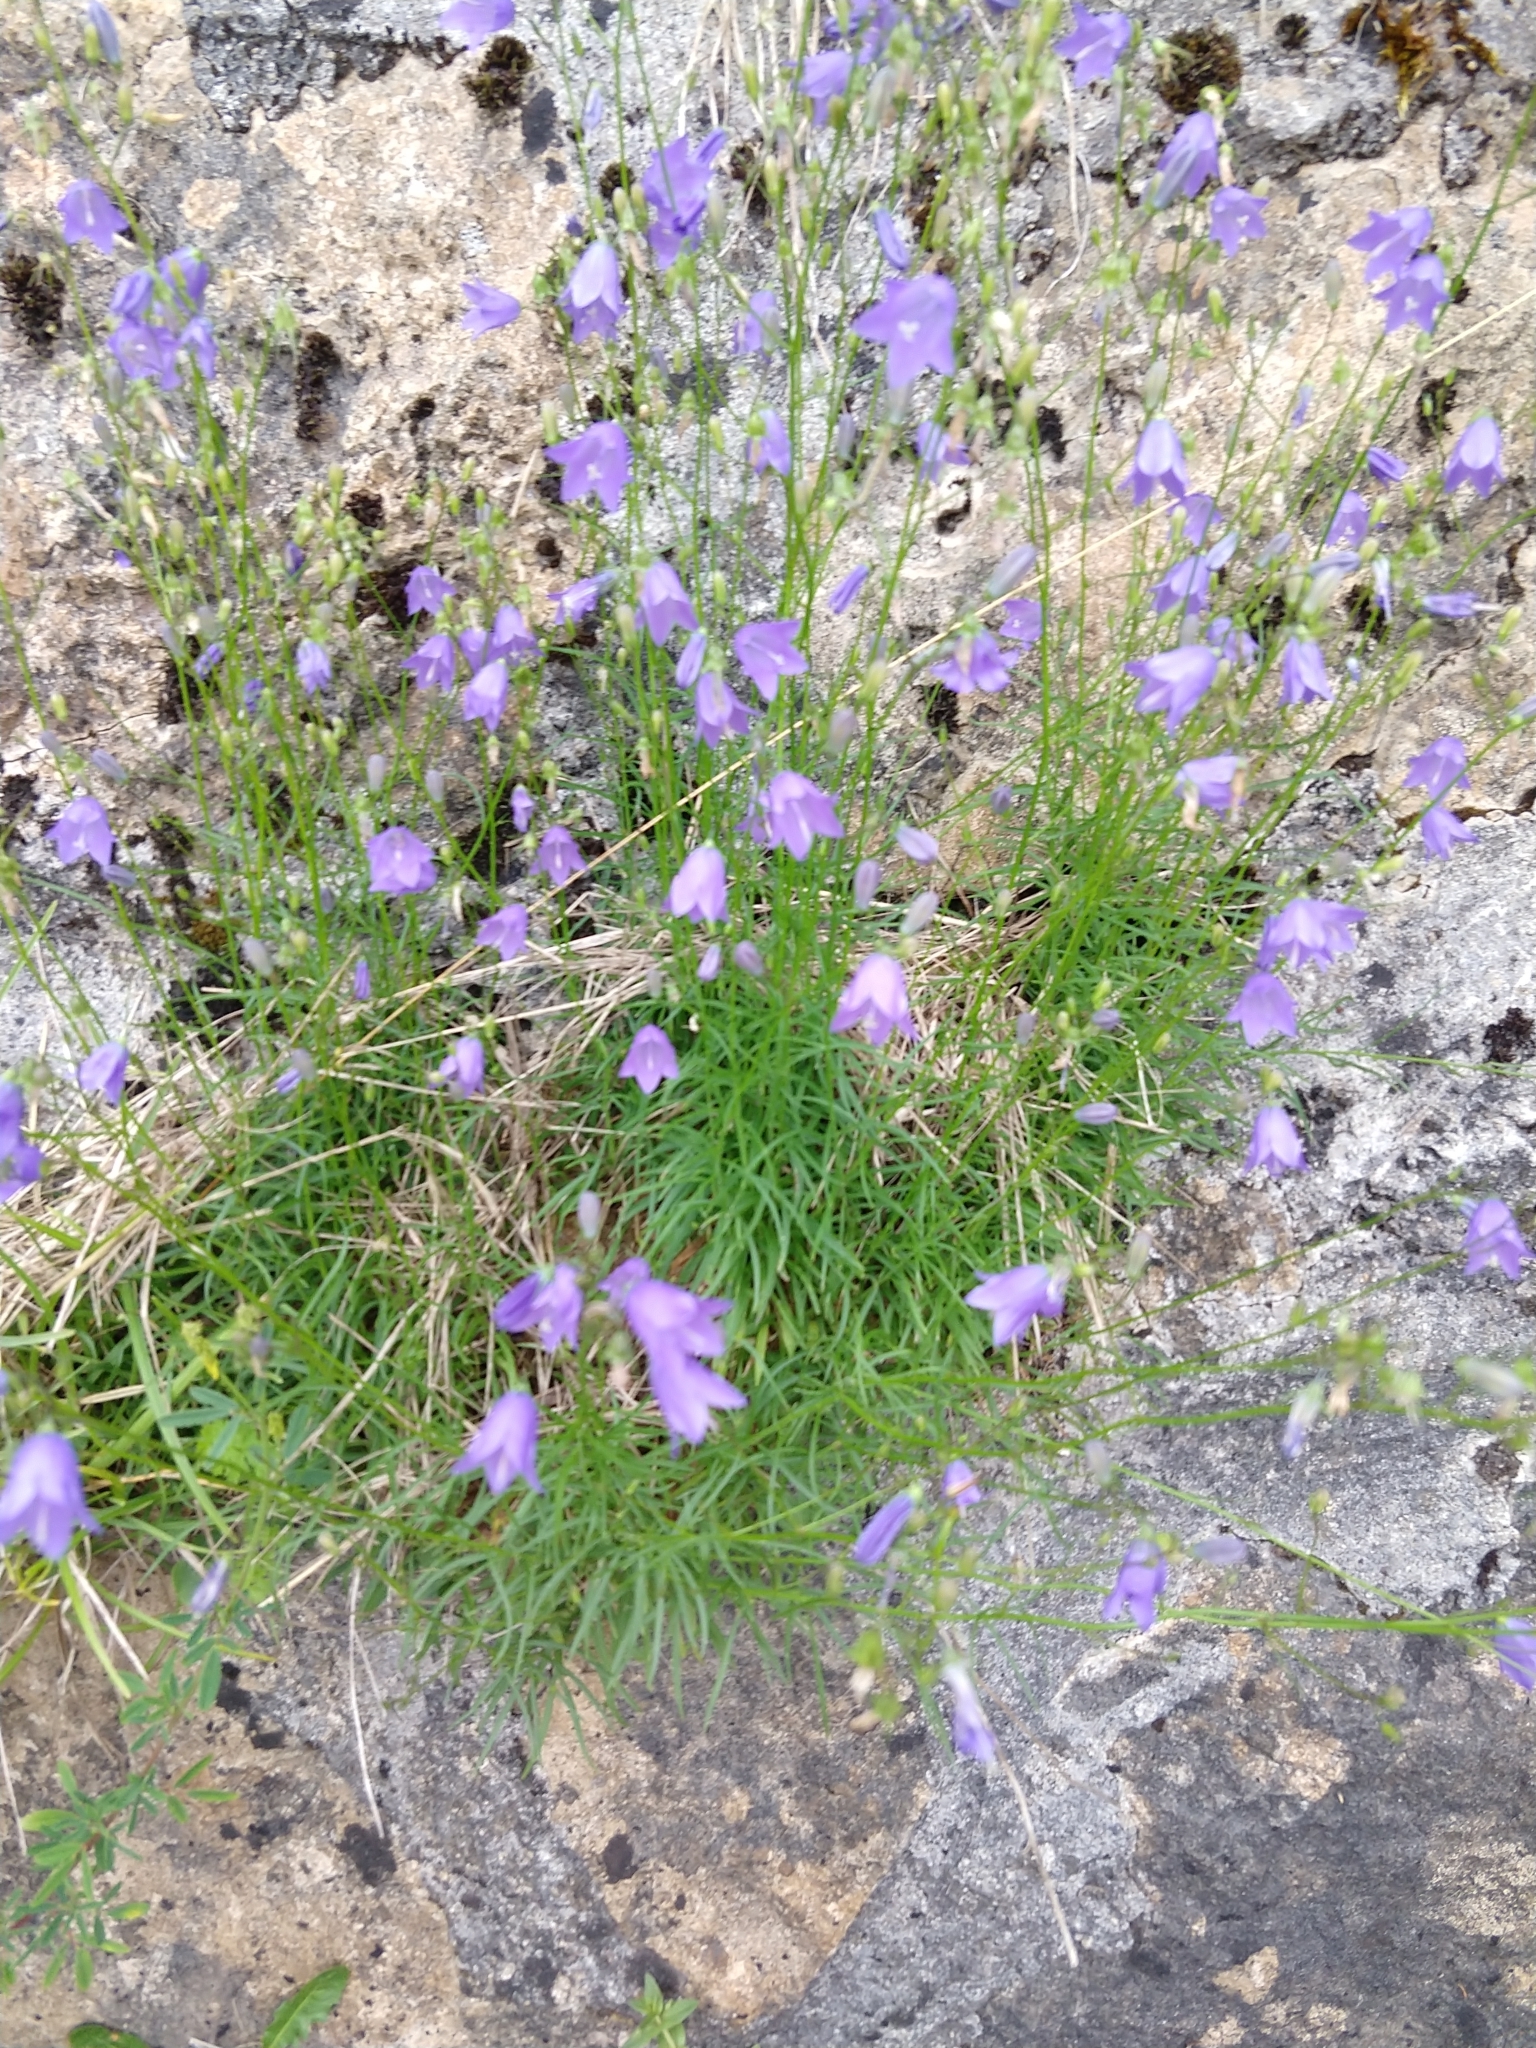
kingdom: Plantae
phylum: Tracheophyta
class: Magnoliopsida
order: Asterales
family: Campanulaceae
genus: Campanula
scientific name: Campanula rotundifolia
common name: Harebell
